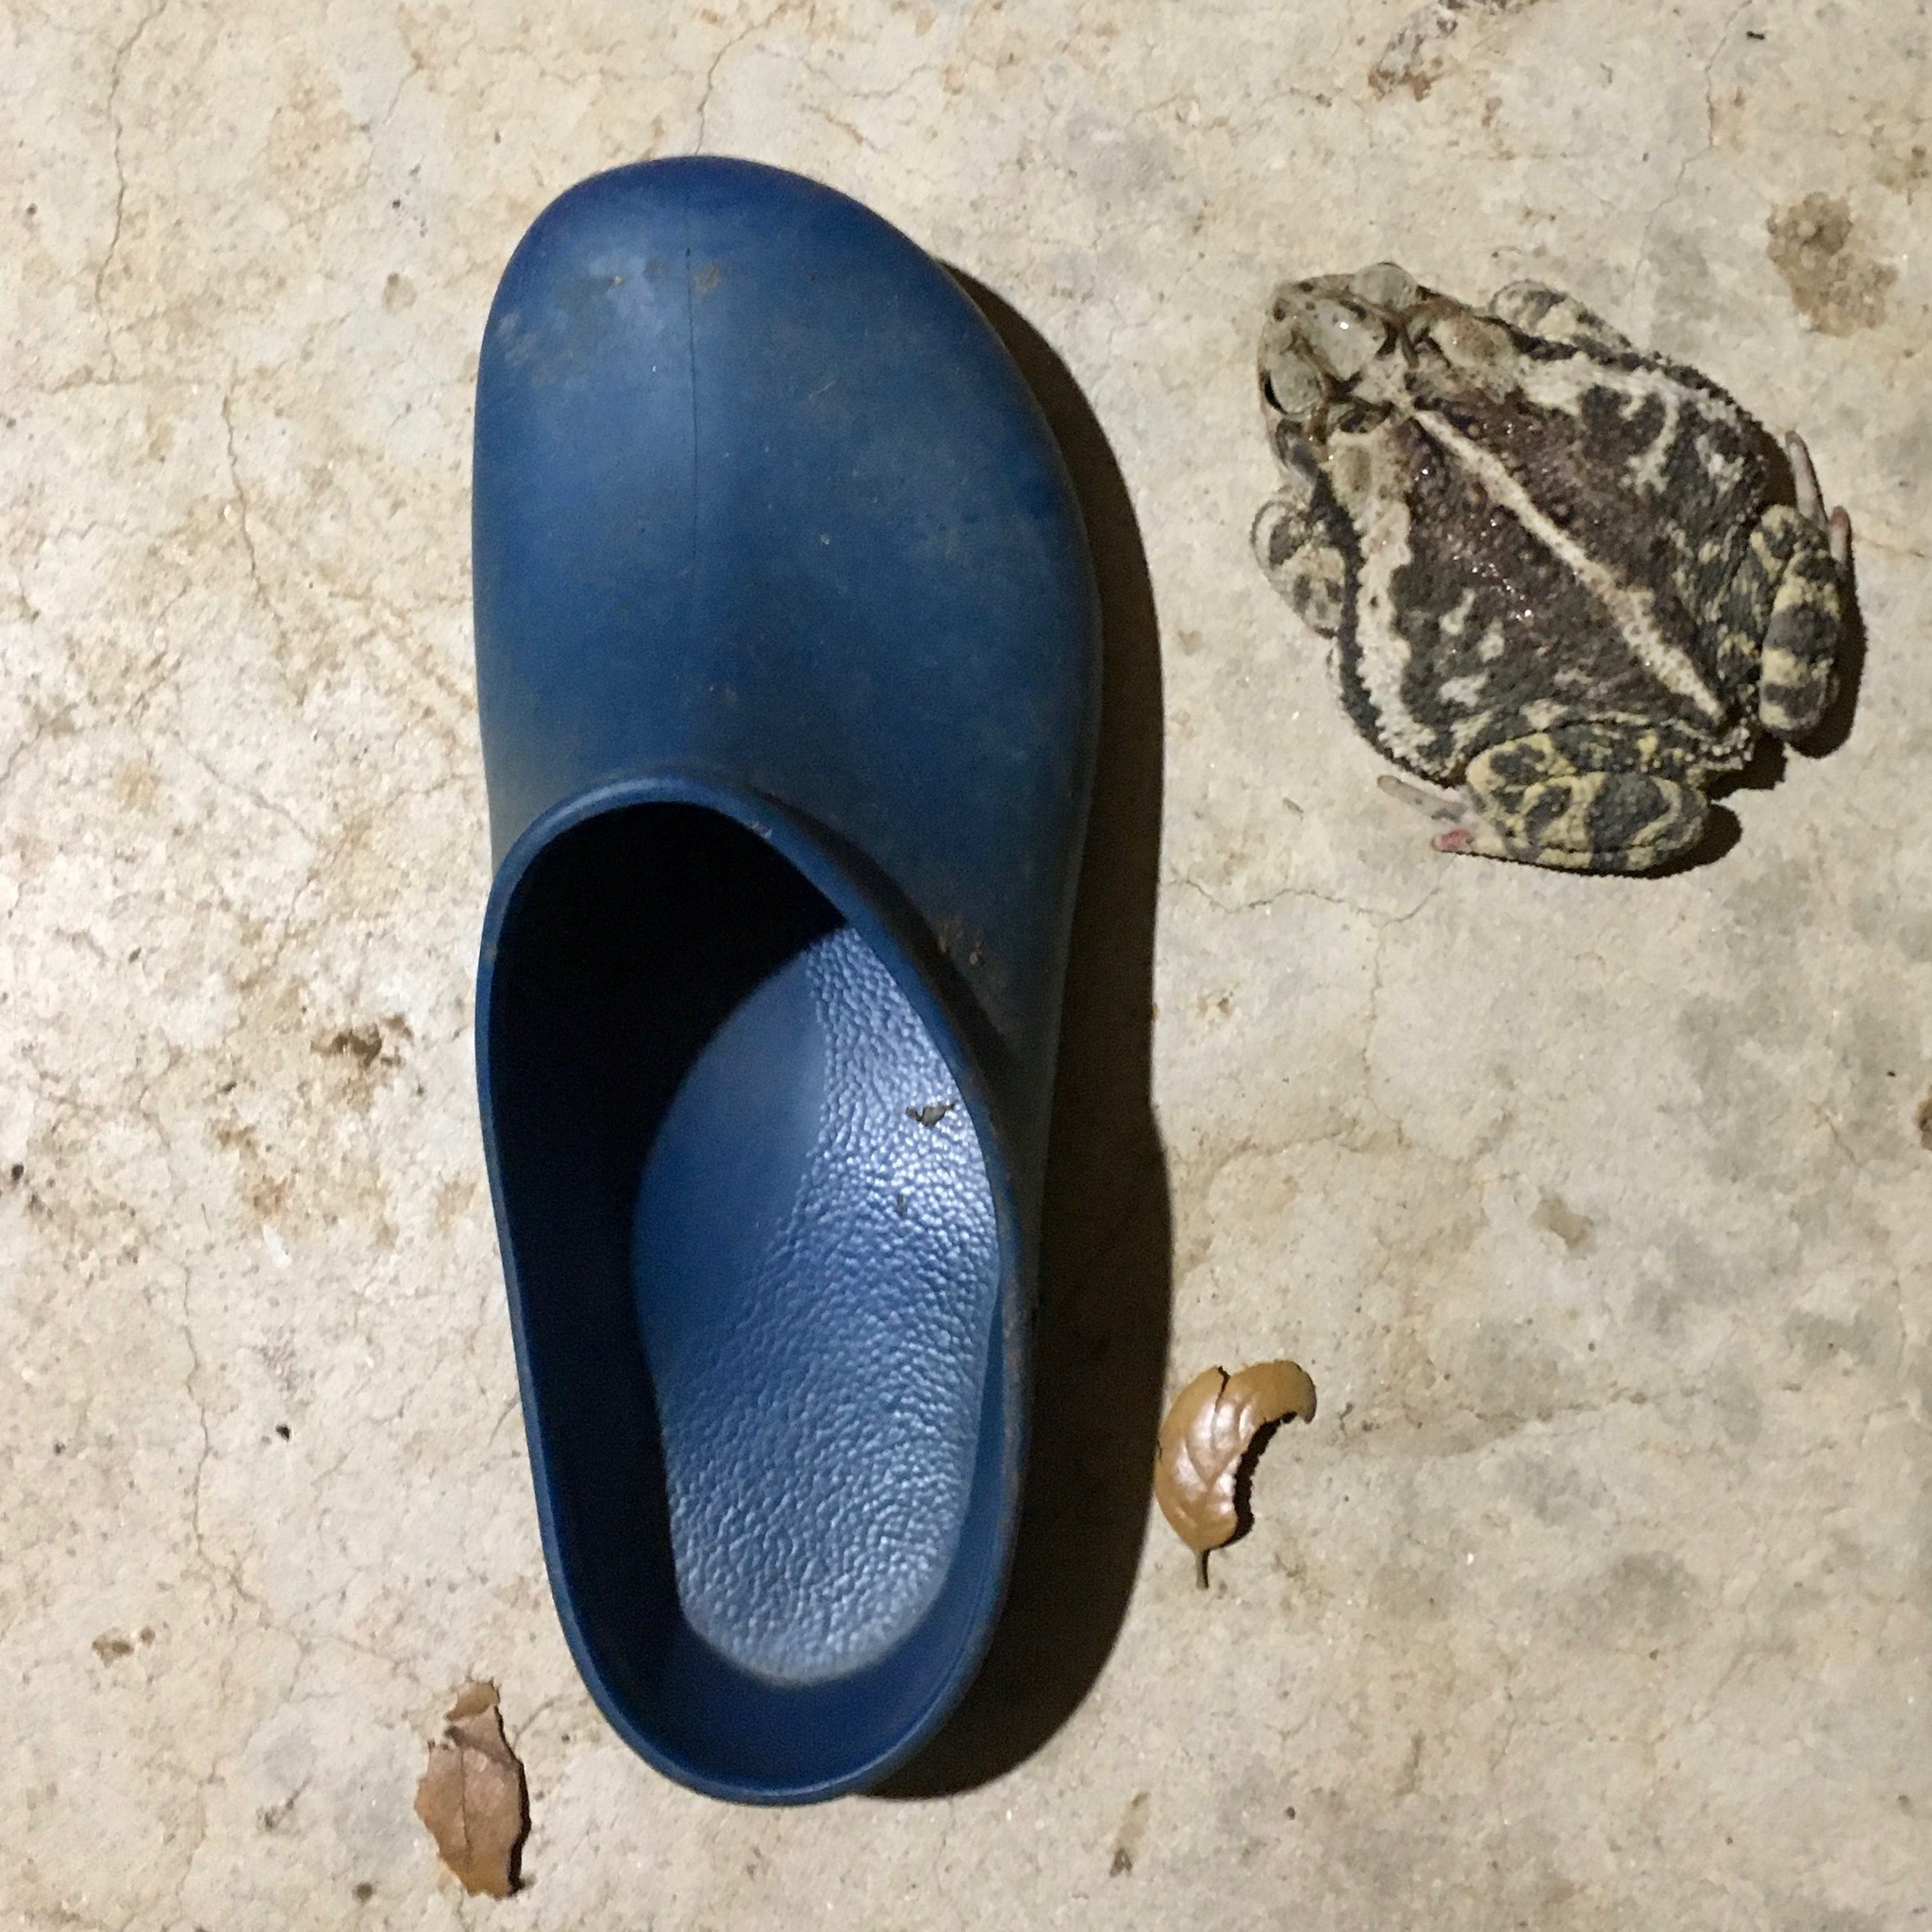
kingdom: Animalia
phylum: Chordata
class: Amphibia
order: Anura
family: Bufonidae
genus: Incilius
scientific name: Incilius nebulifer
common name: Gulf coast toad
